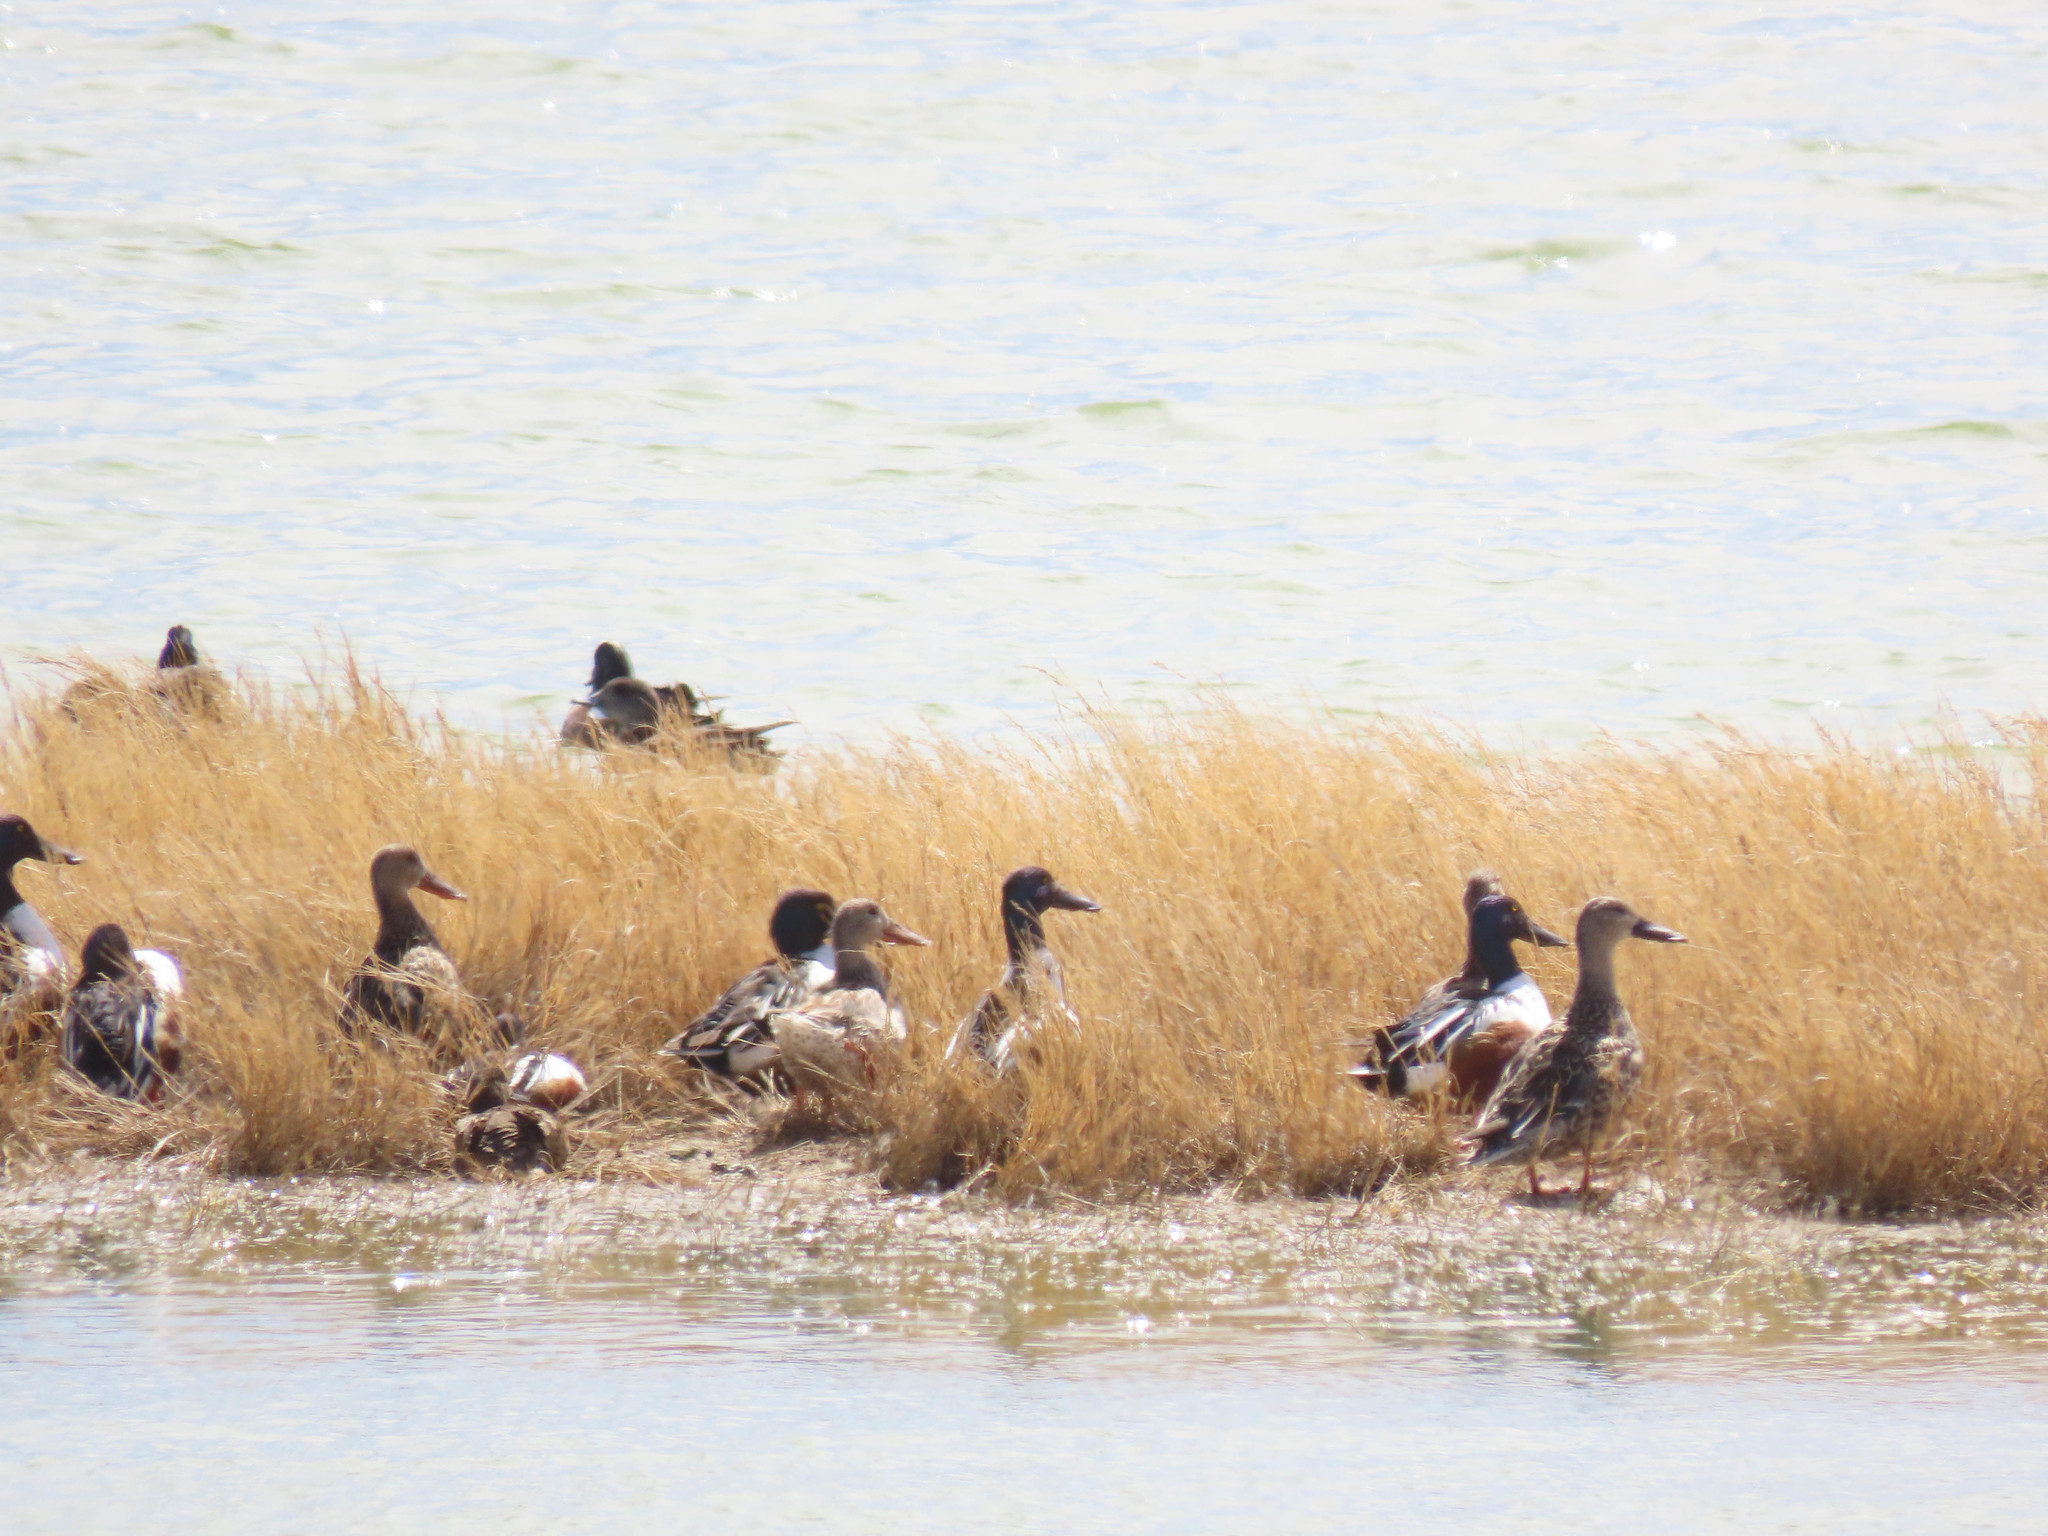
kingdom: Animalia
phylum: Chordata
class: Aves
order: Anseriformes
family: Anatidae
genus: Spatula
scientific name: Spatula clypeata
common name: Northern shoveler
